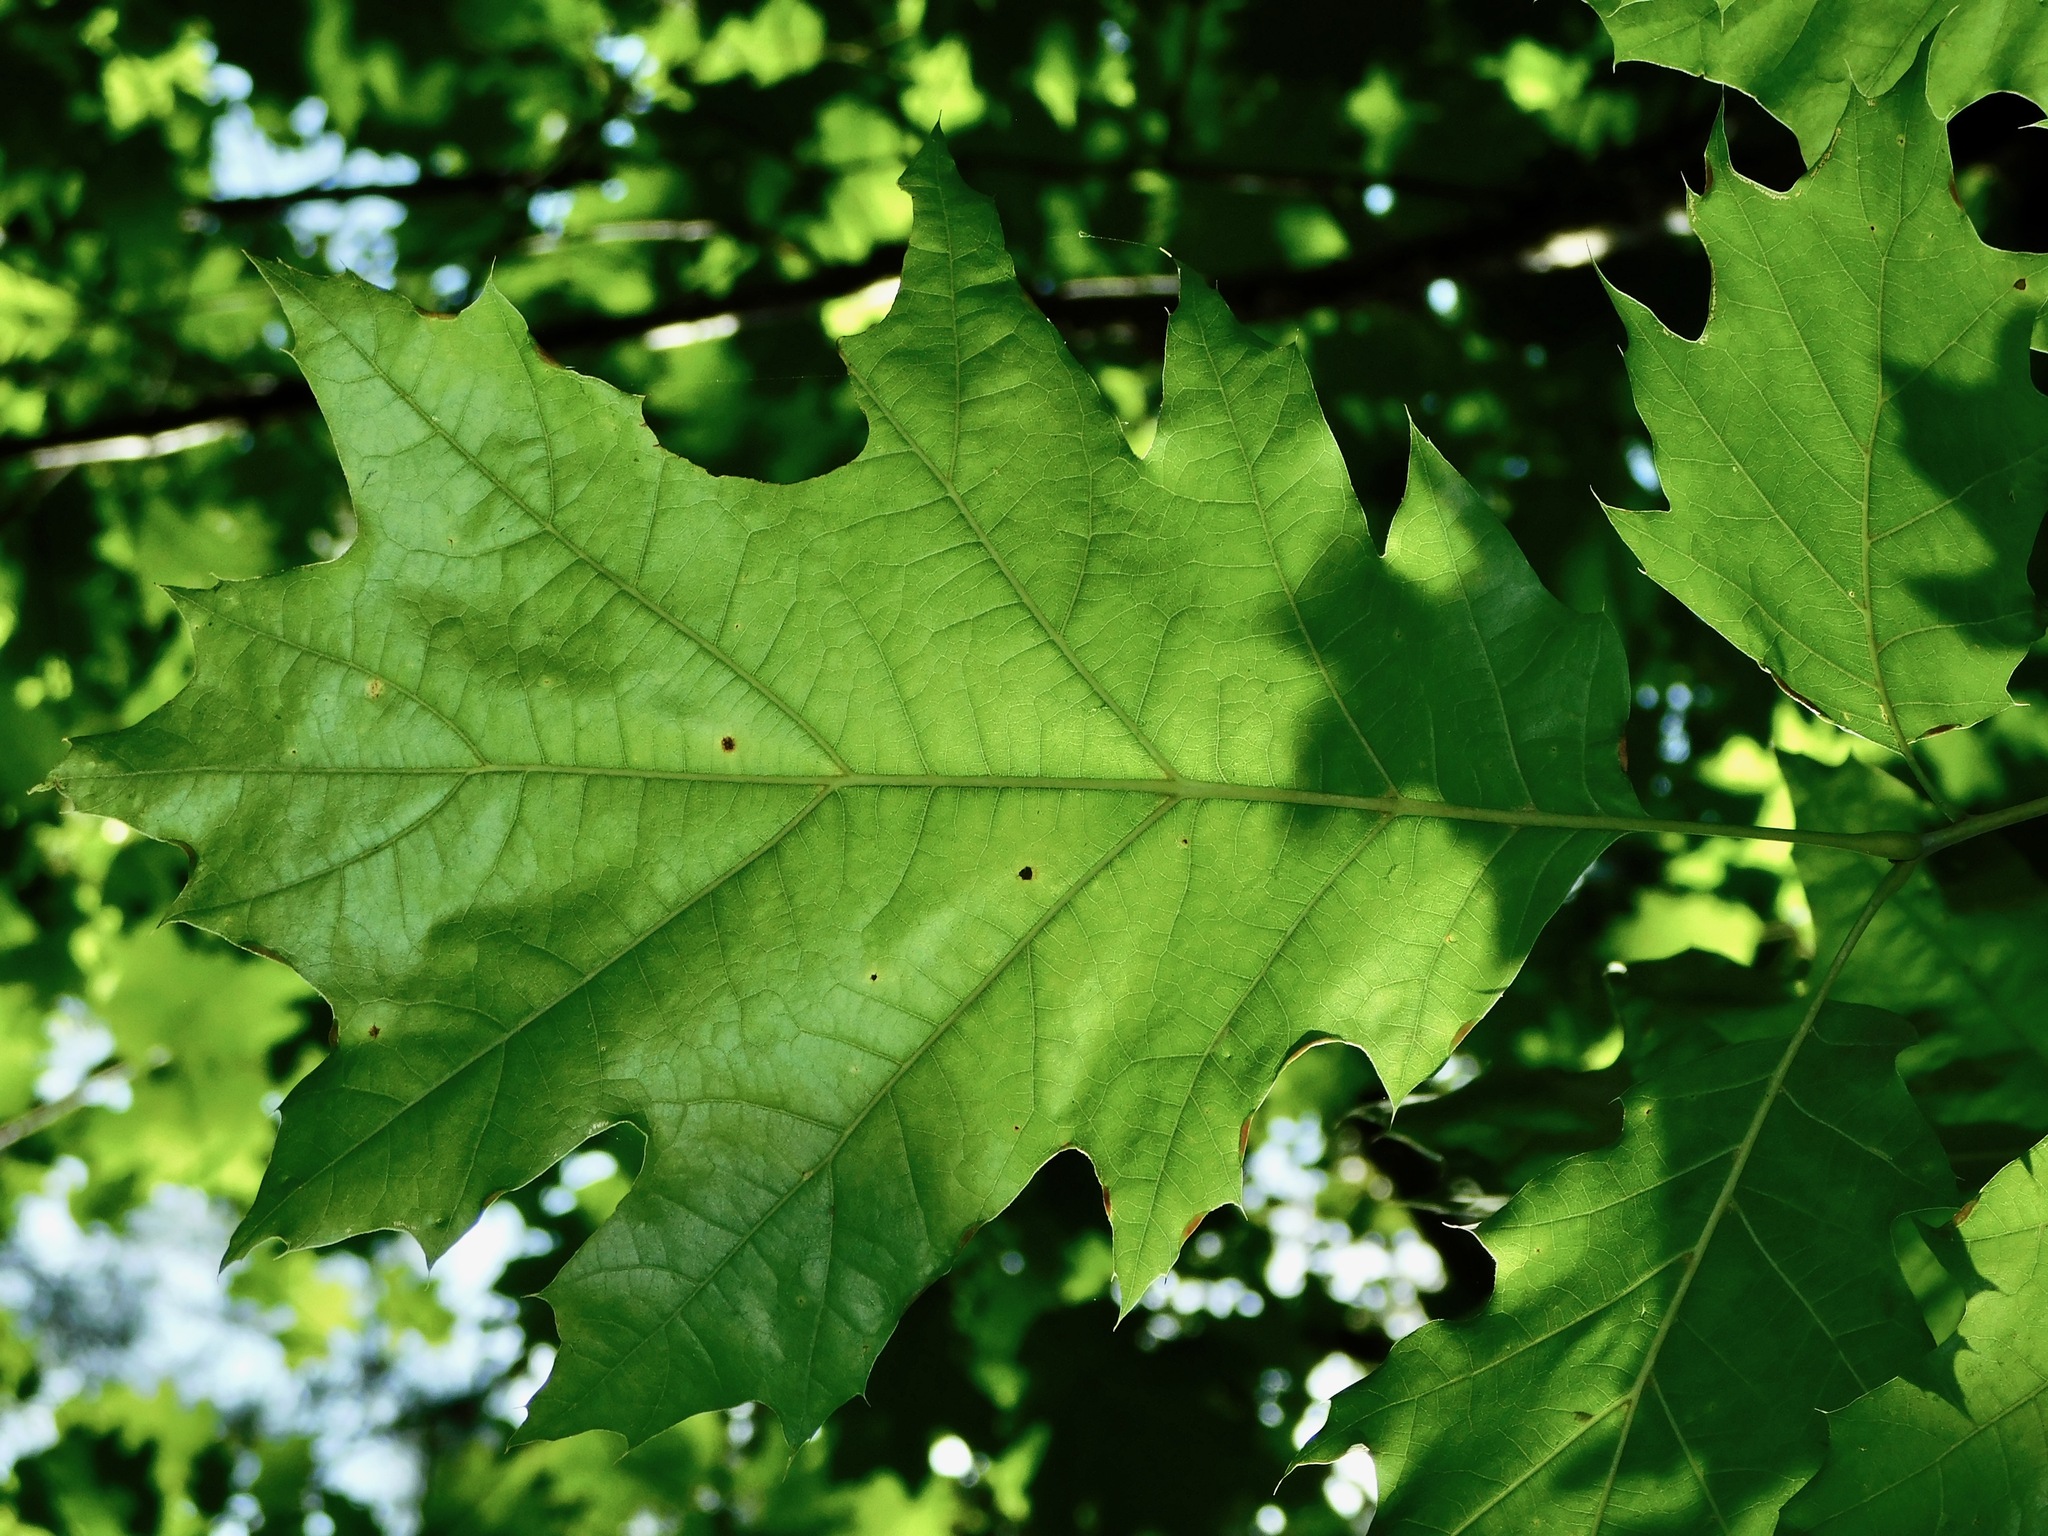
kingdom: Plantae
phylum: Tracheophyta
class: Magnoliopsida
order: Fagales
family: Fagaceae
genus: Quercus
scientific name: Quercus velutina
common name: Black oak
